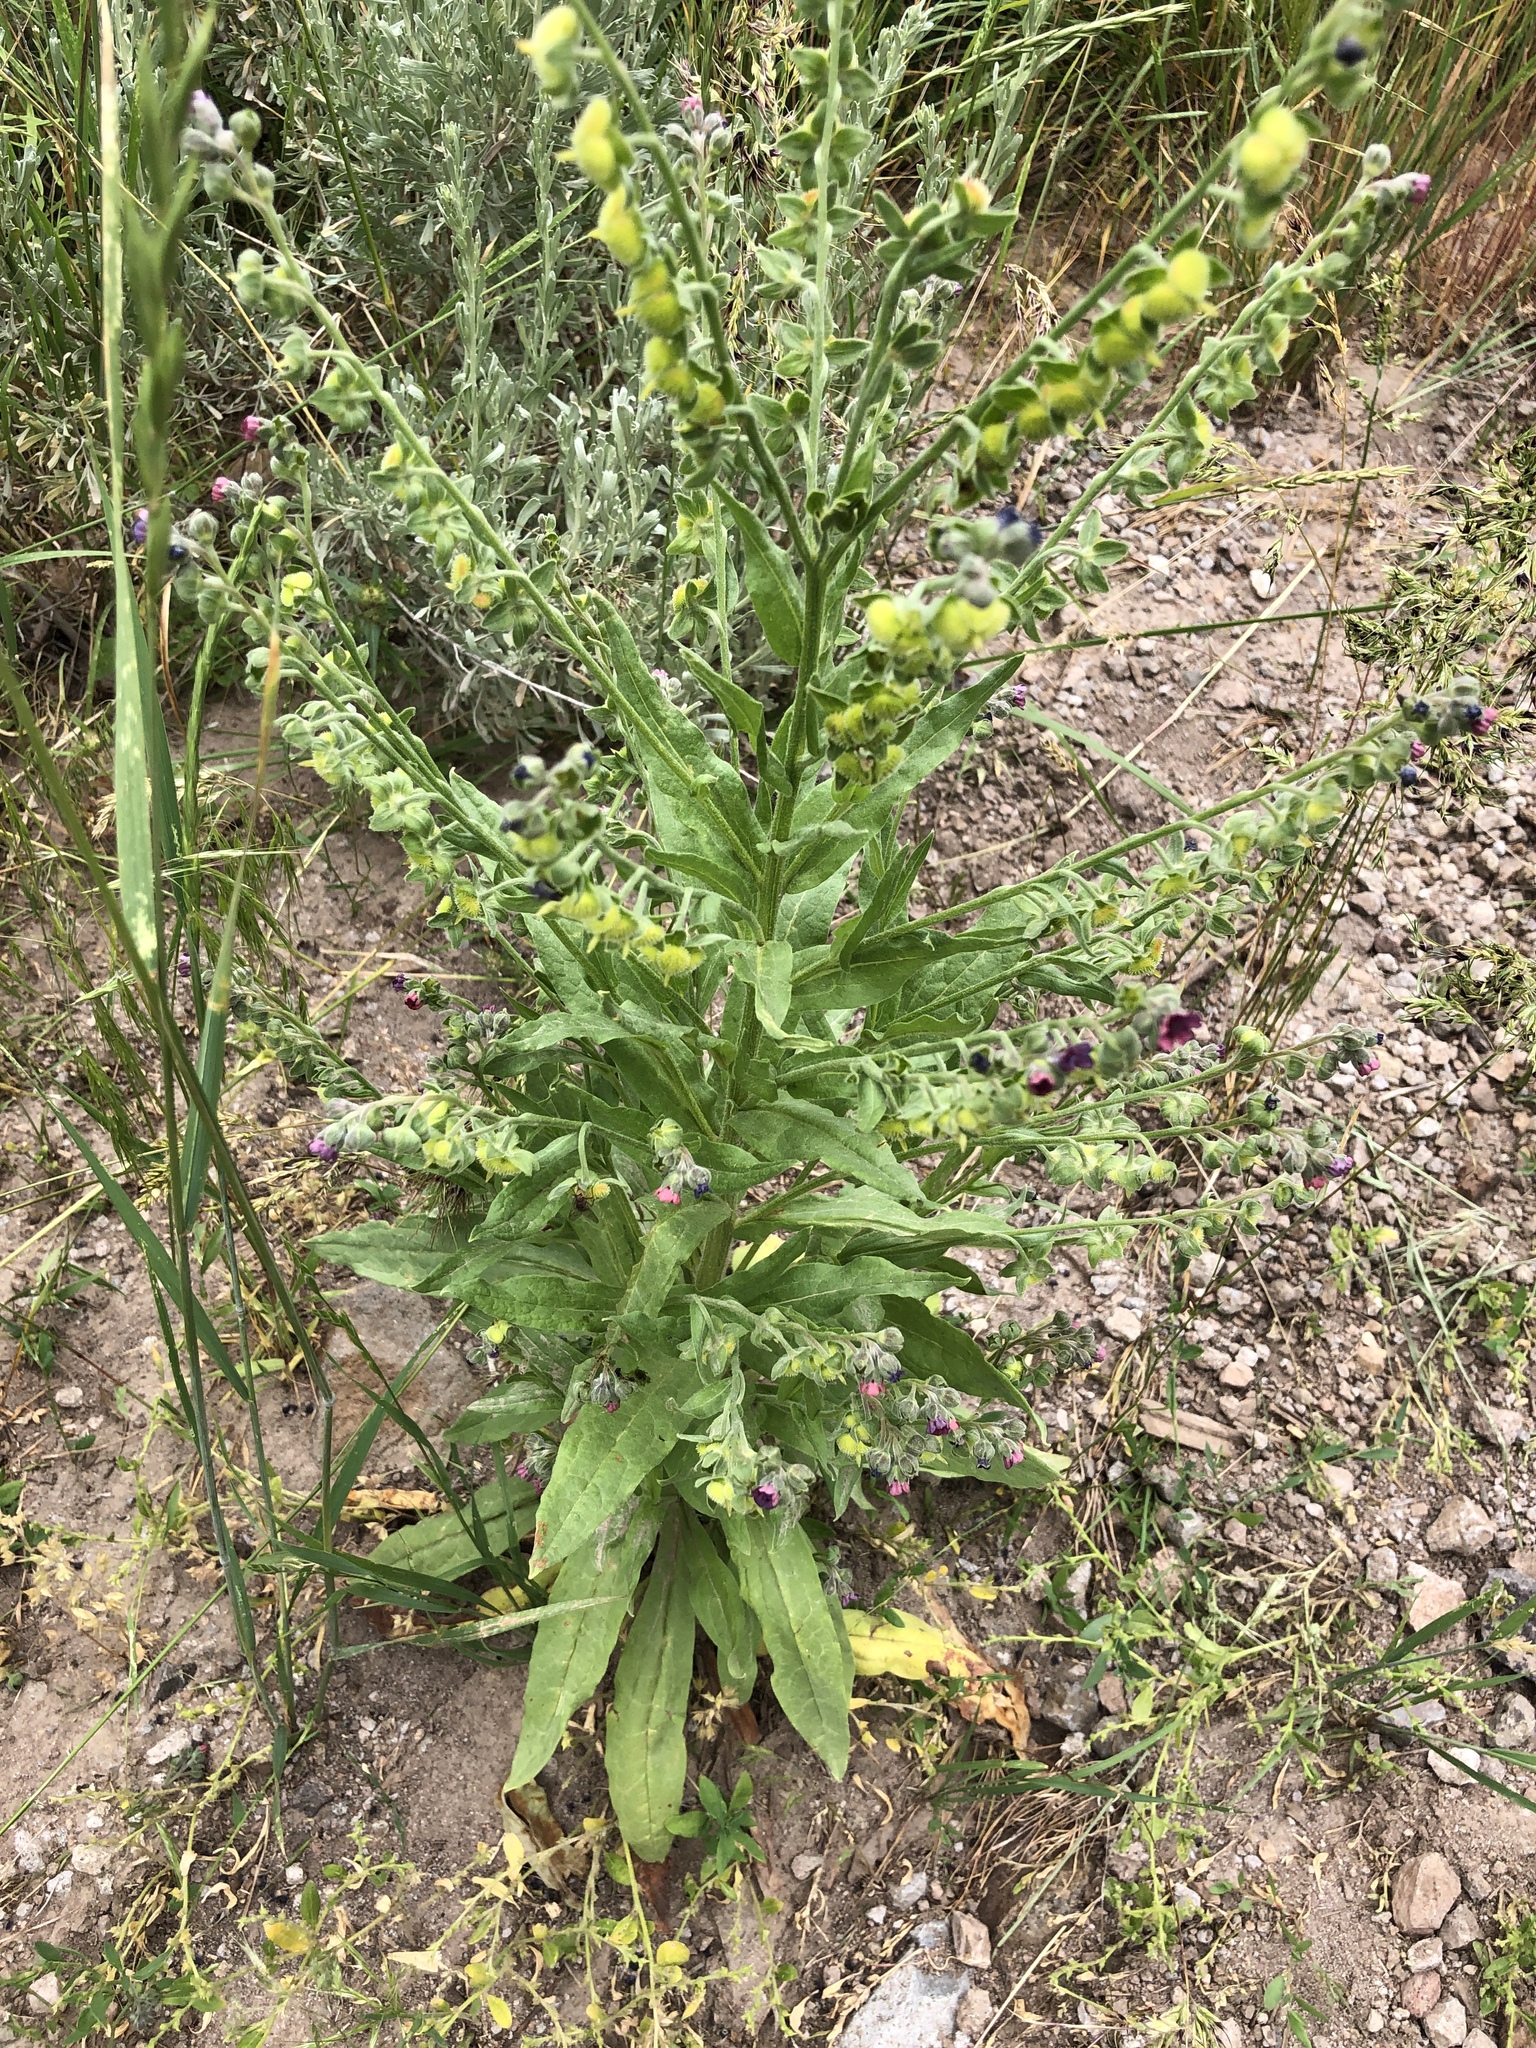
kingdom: Plantae
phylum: Tracheophyta
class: Magnoliopsida
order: Boraginales
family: Boraginaceae
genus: Cynoglossum
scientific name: Cynoglossum officinale
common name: Hound's-tongue
